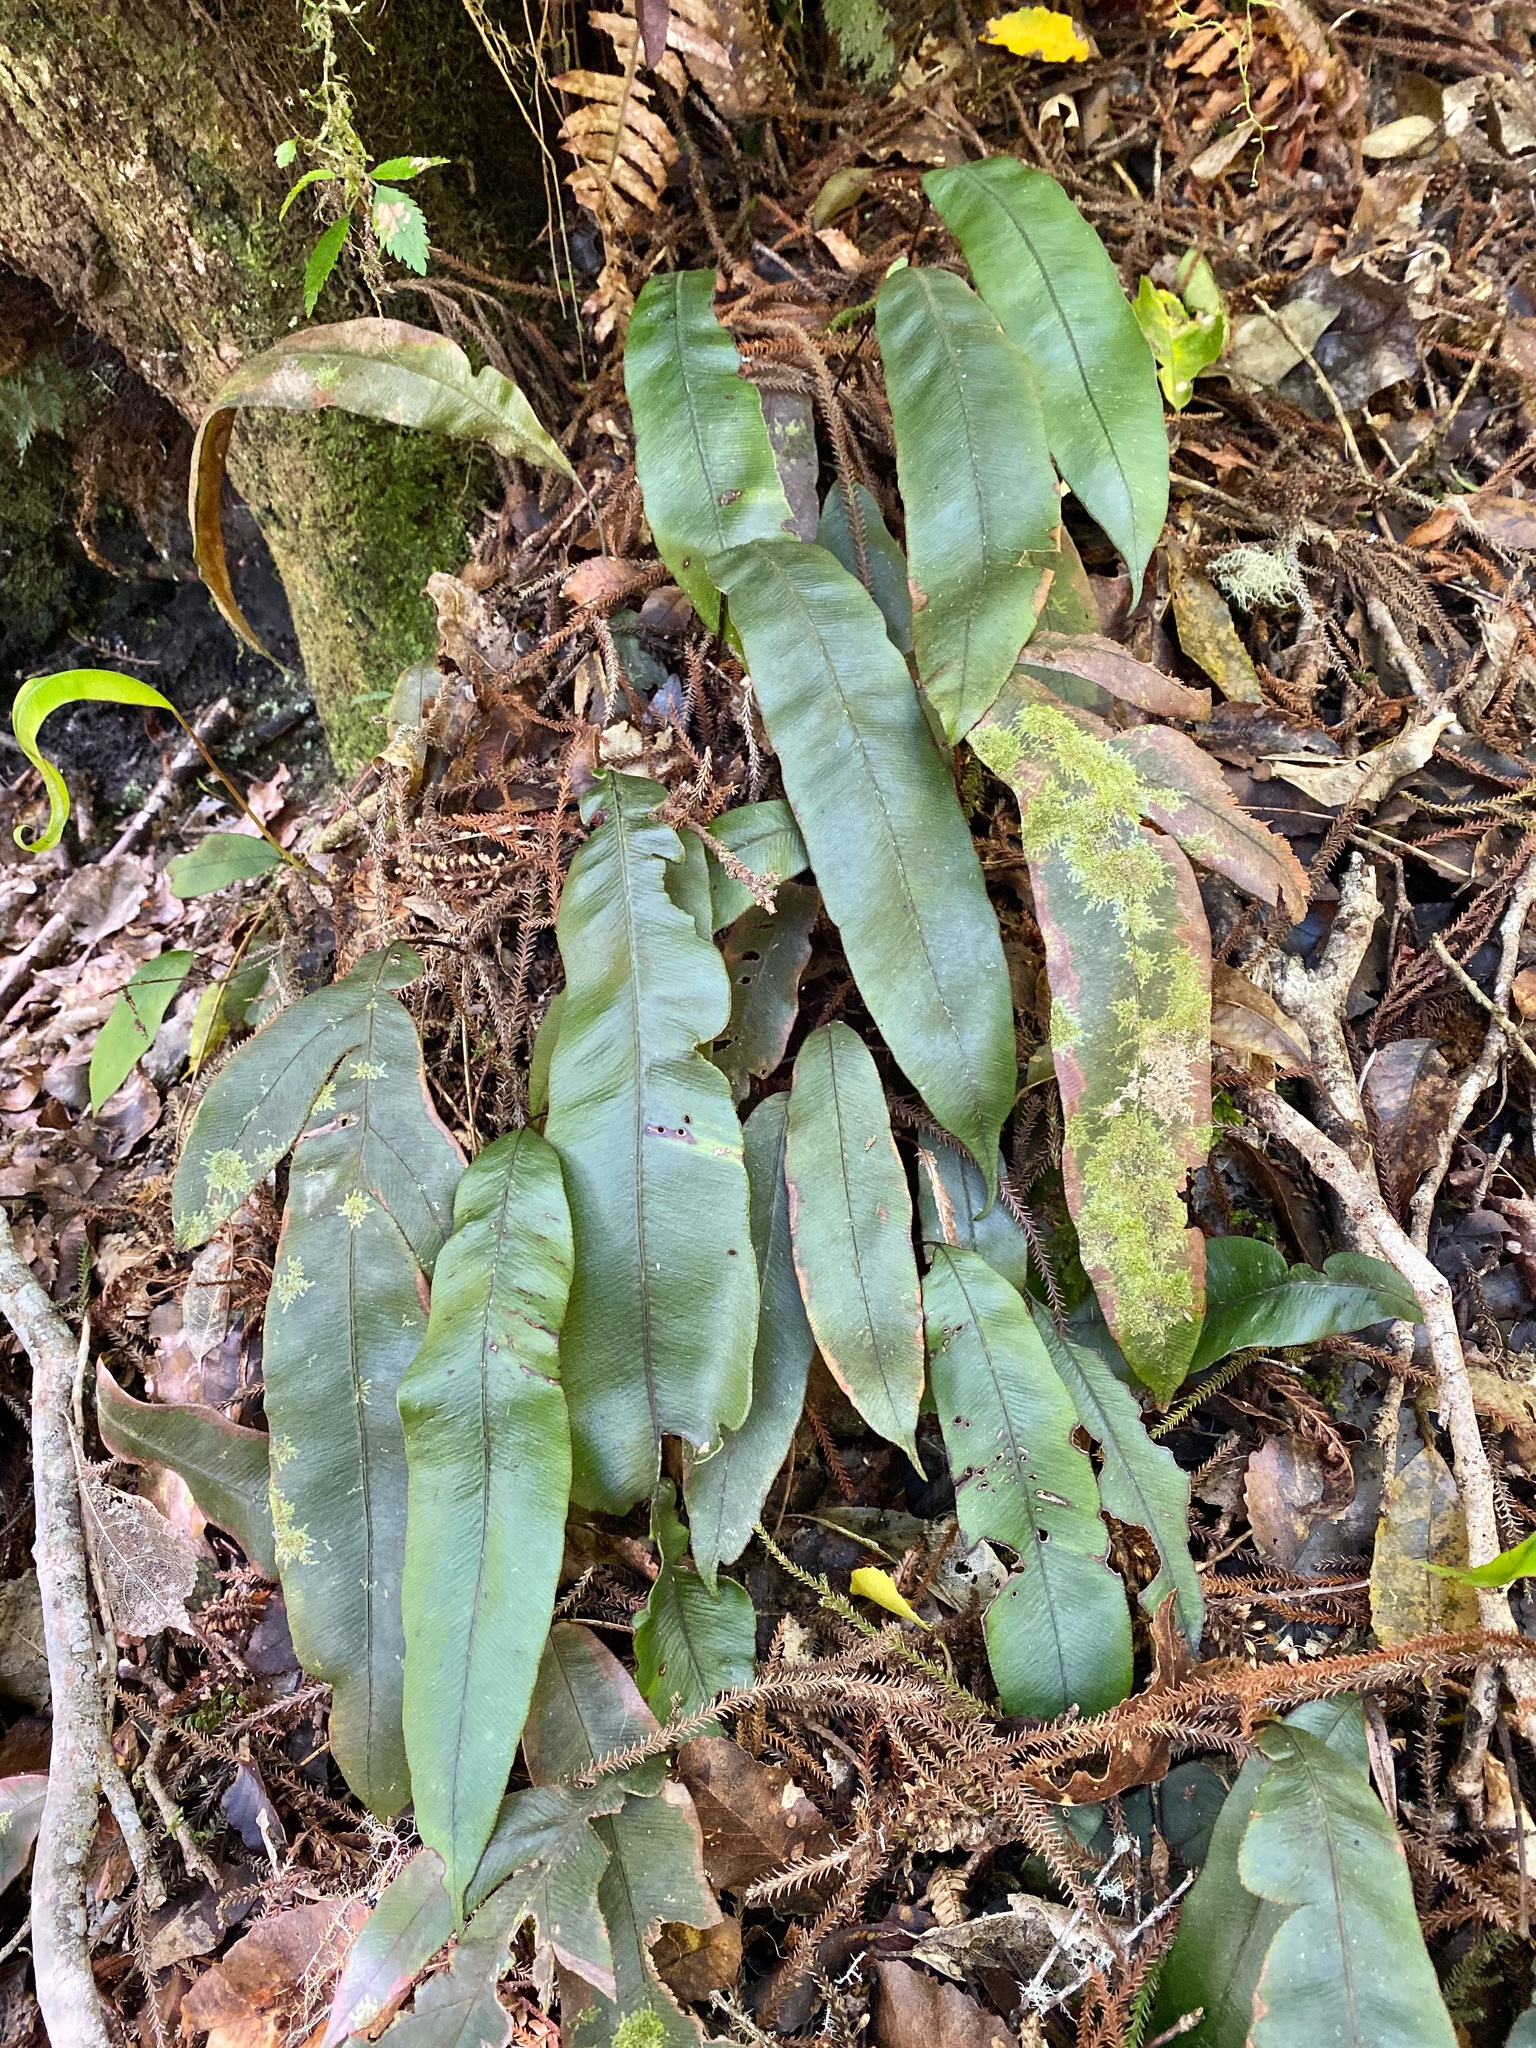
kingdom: Plantae
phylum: Tracheophyta
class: Polypodiopsida
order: Polypodiales
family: Blechnaceae
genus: Austroblechnum
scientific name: Austroblechnum colensoi
